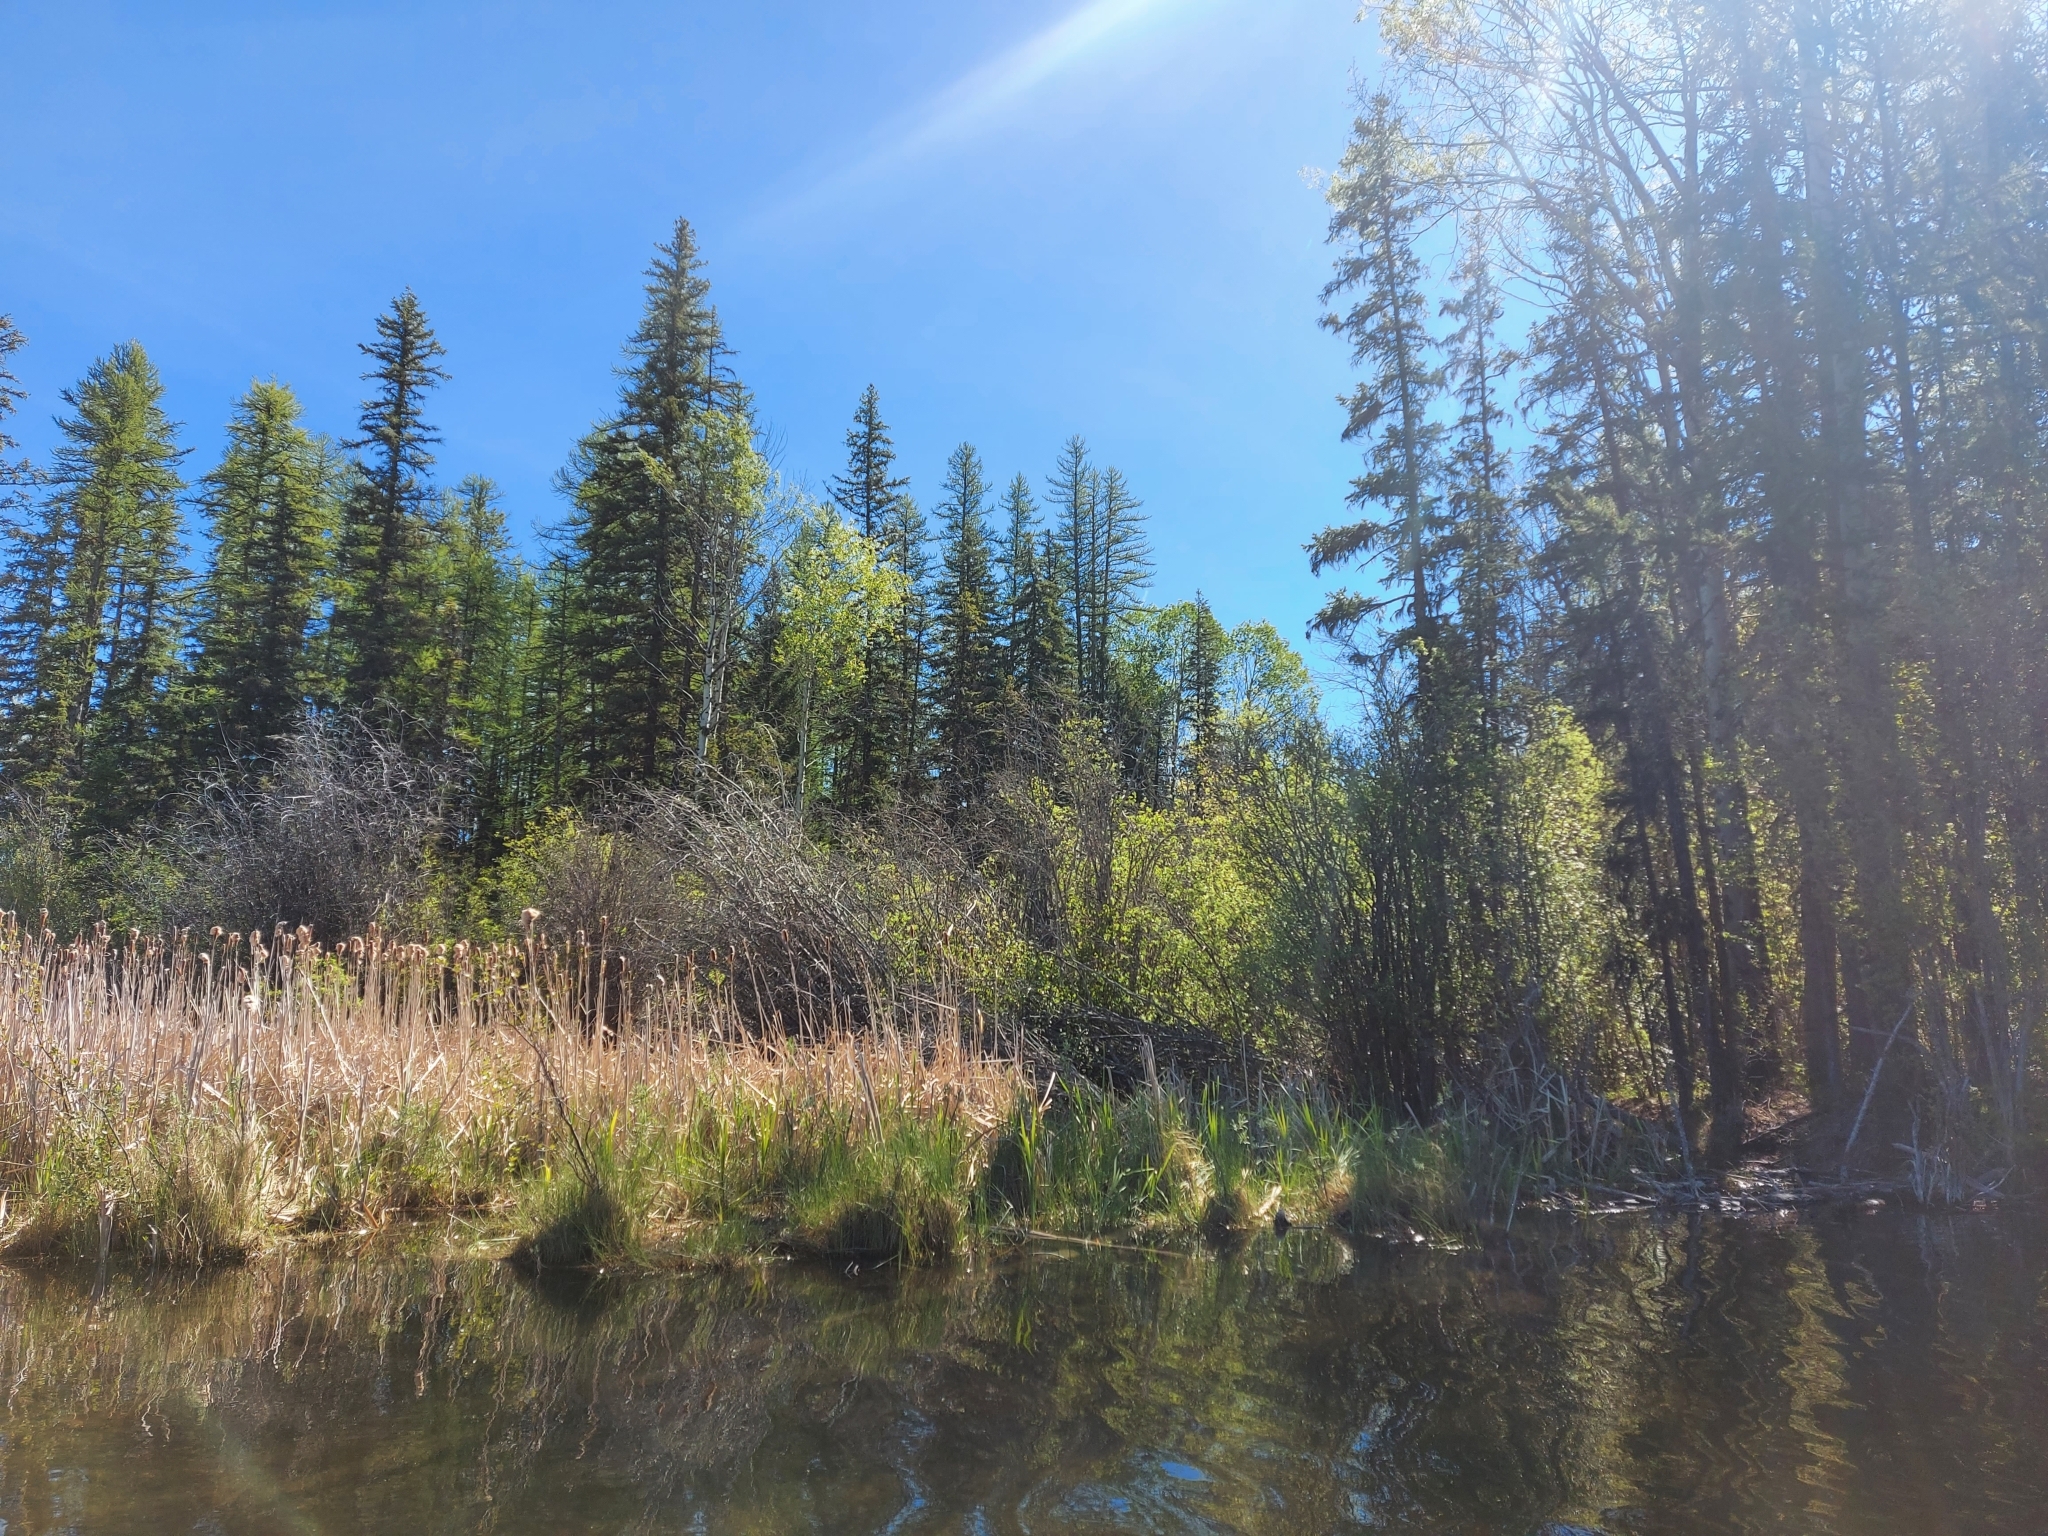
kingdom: Animalia
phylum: Chordata
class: Aves
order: Passeriformes
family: Parulidae
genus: Setophaga
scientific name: Setophaga ruticilla
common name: American redstart
